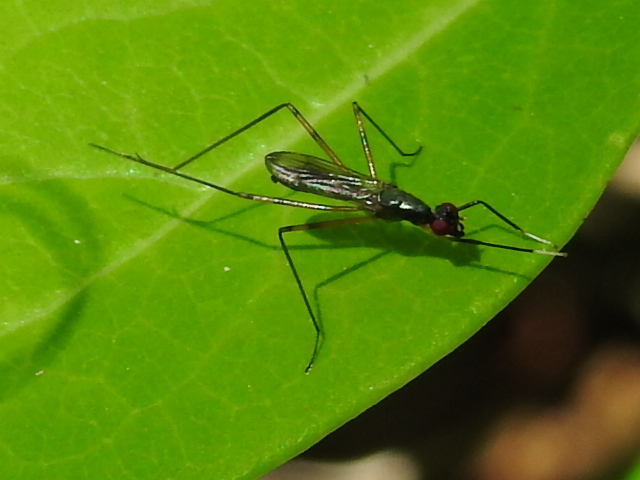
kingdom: Animalia
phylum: Arthropoda
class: Insecta
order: Diptera
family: Micropezidae
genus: Rainieria
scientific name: Rainieria antennaepes
